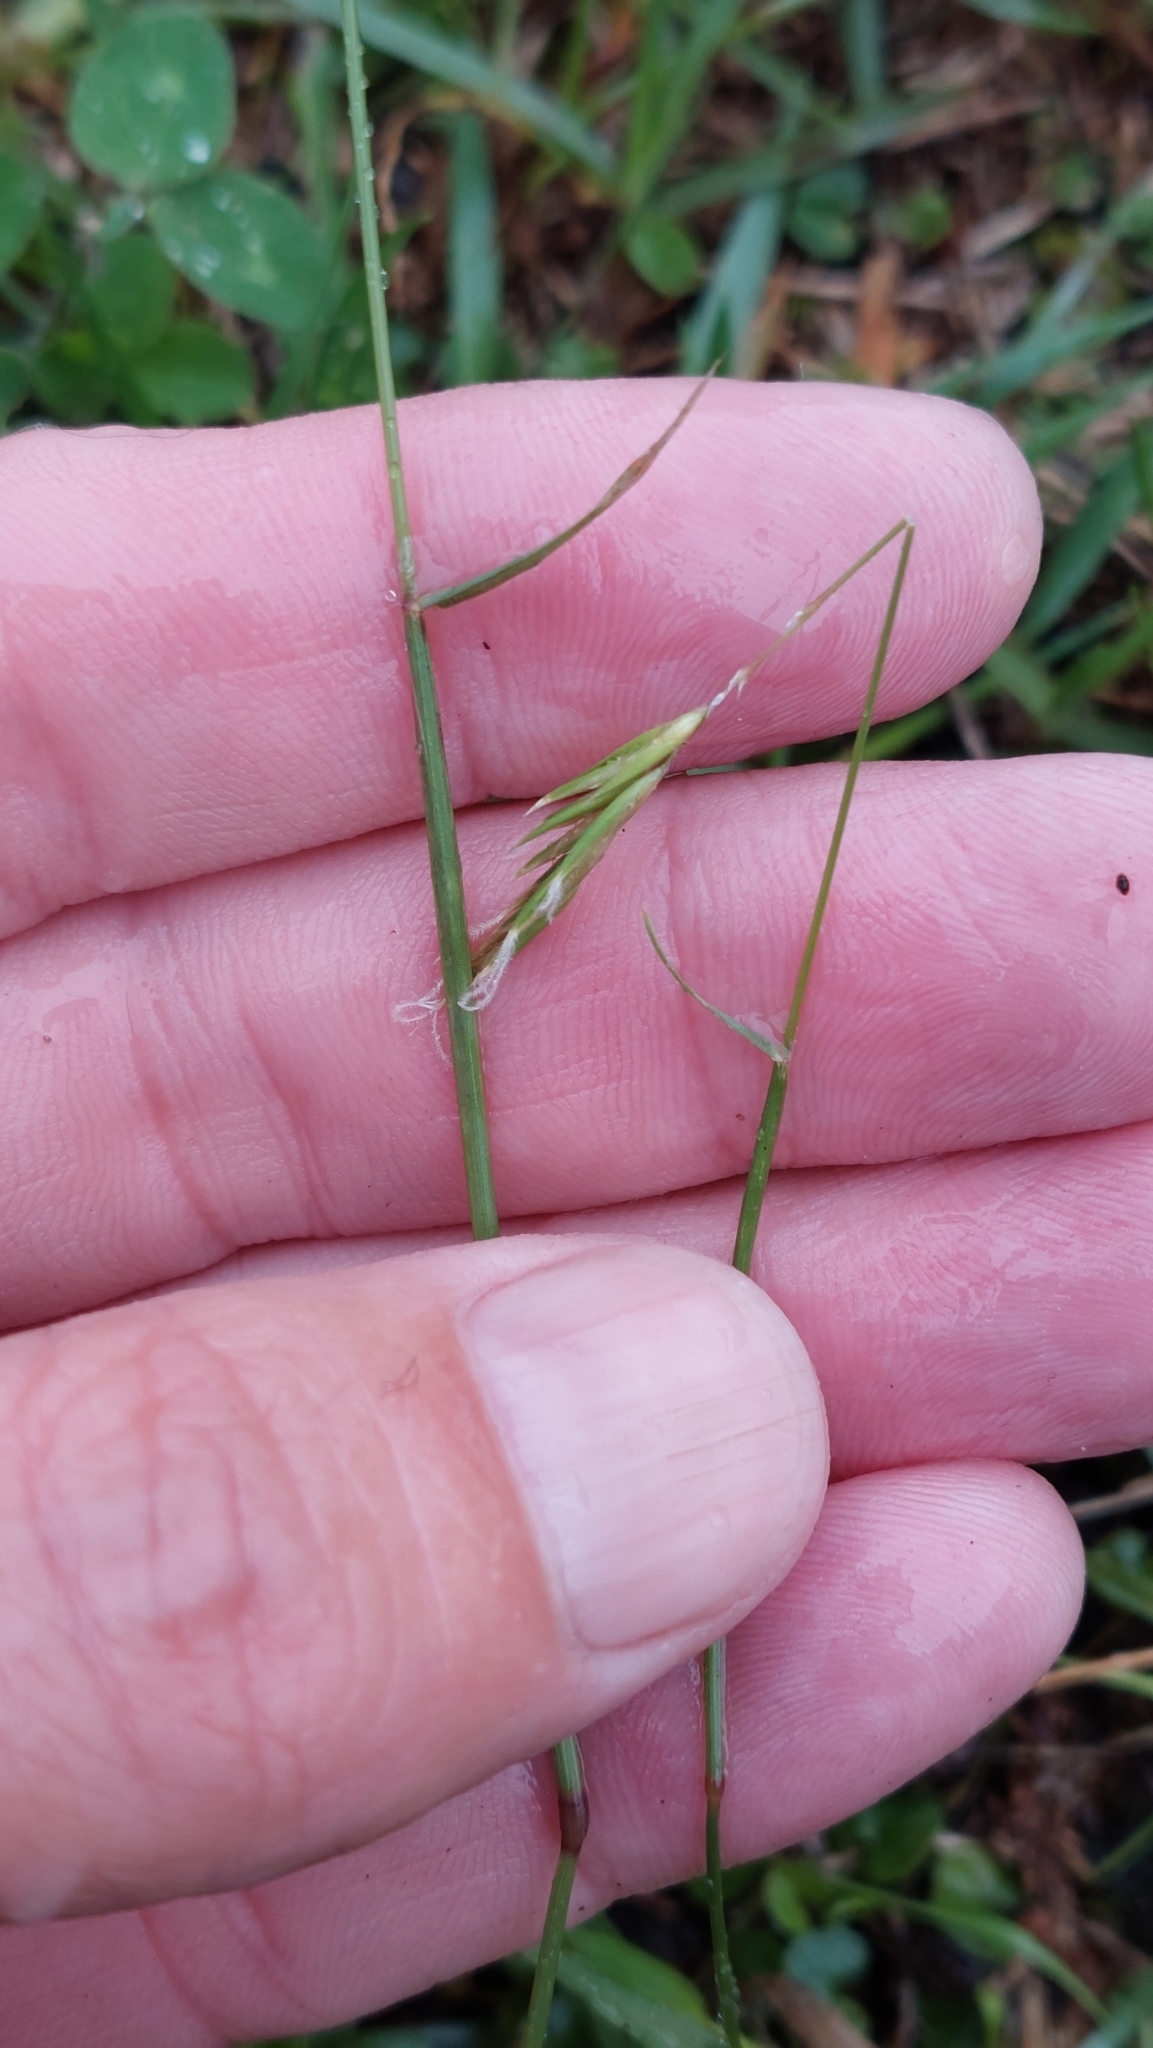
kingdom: Plantae
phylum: Tracheophyta
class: Liliopsida
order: Poales
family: Poaceae
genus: Anthoxanthum
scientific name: Anthoxanthum odoratum
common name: Sweet vernalgrass
